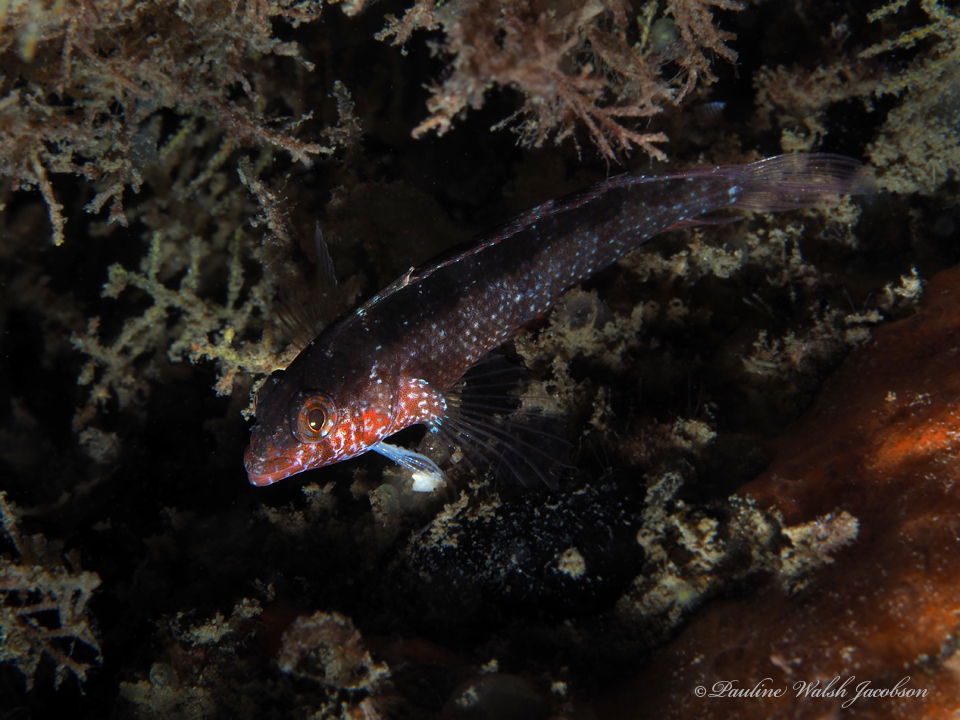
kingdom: Animalia
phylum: Chordata
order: Perciformes
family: Labrisomidae
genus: Malacoctenus
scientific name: Malacoctenus macropus
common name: Rosy blenny
